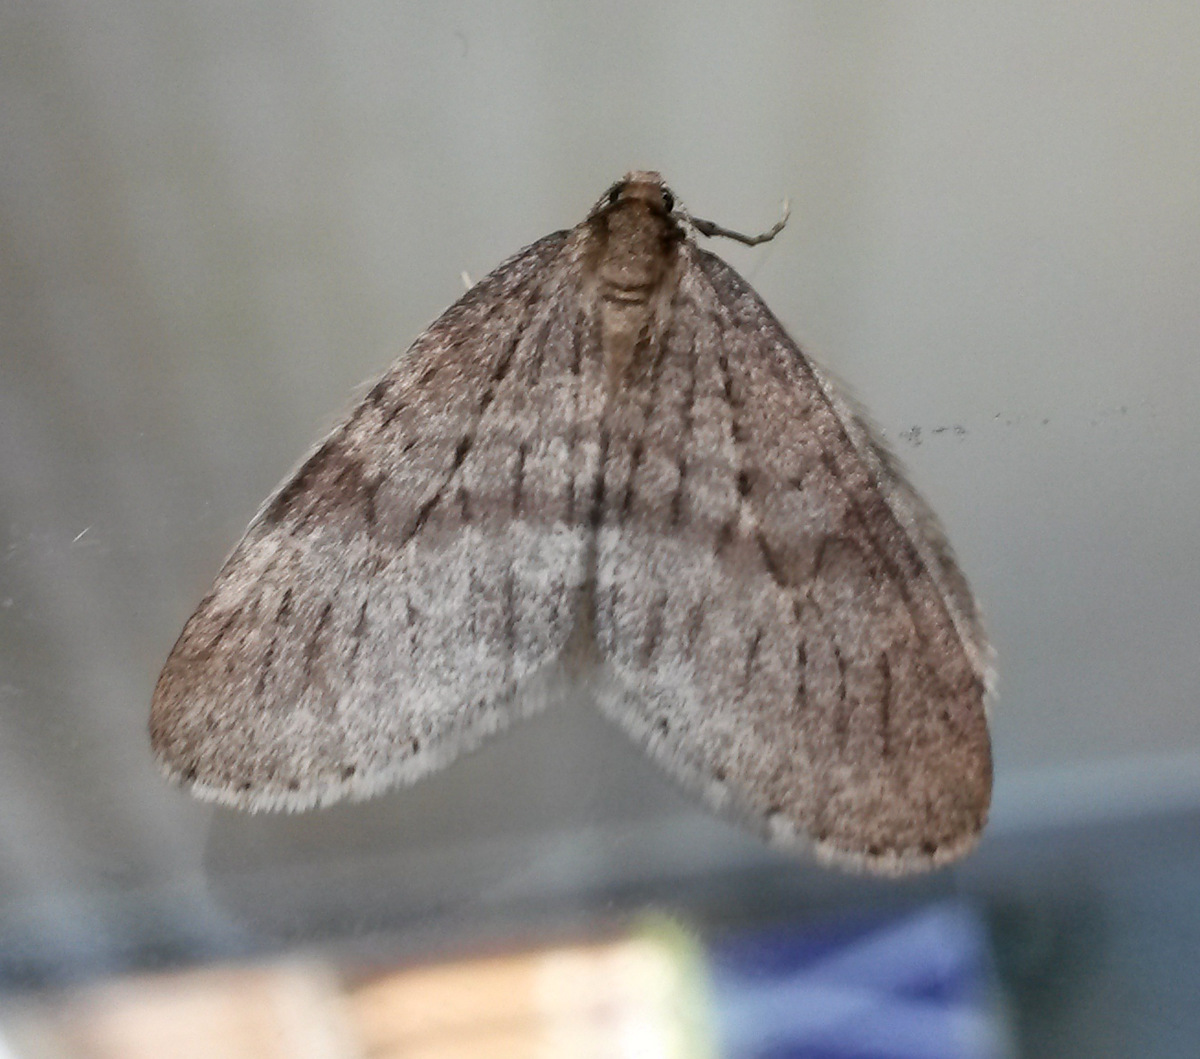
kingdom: Animalia
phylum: Arthropoda
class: Insecta
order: Lepidoptera
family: Geometridae
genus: Operophtera
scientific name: Operophtera brumata
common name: Winter moth
